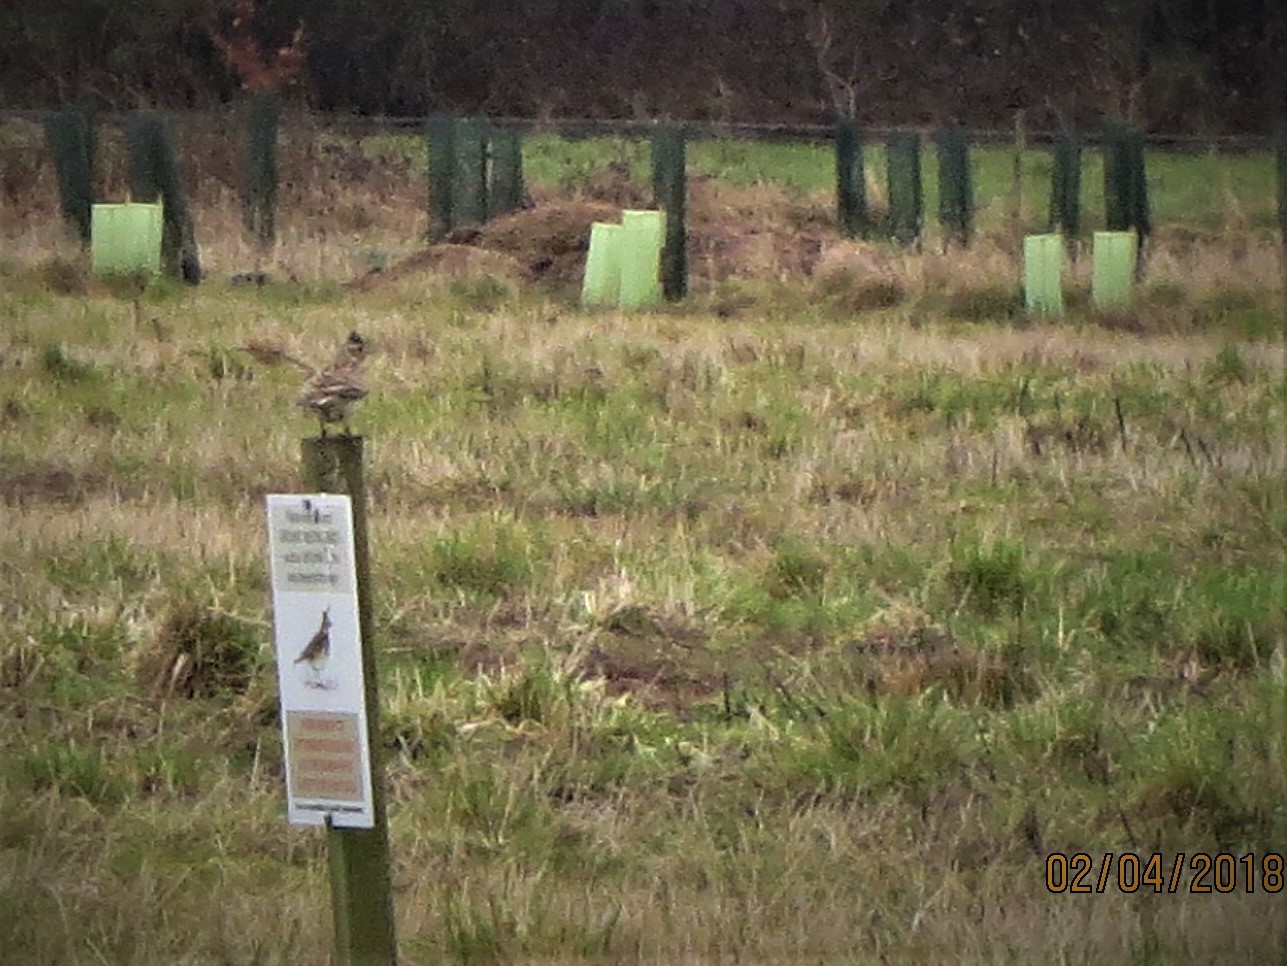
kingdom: Animalia
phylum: Chordata
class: Aves
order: Passeriformes
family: Alaudidae
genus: Alauda
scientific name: Alauda arvensis
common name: Eurasian skylark
